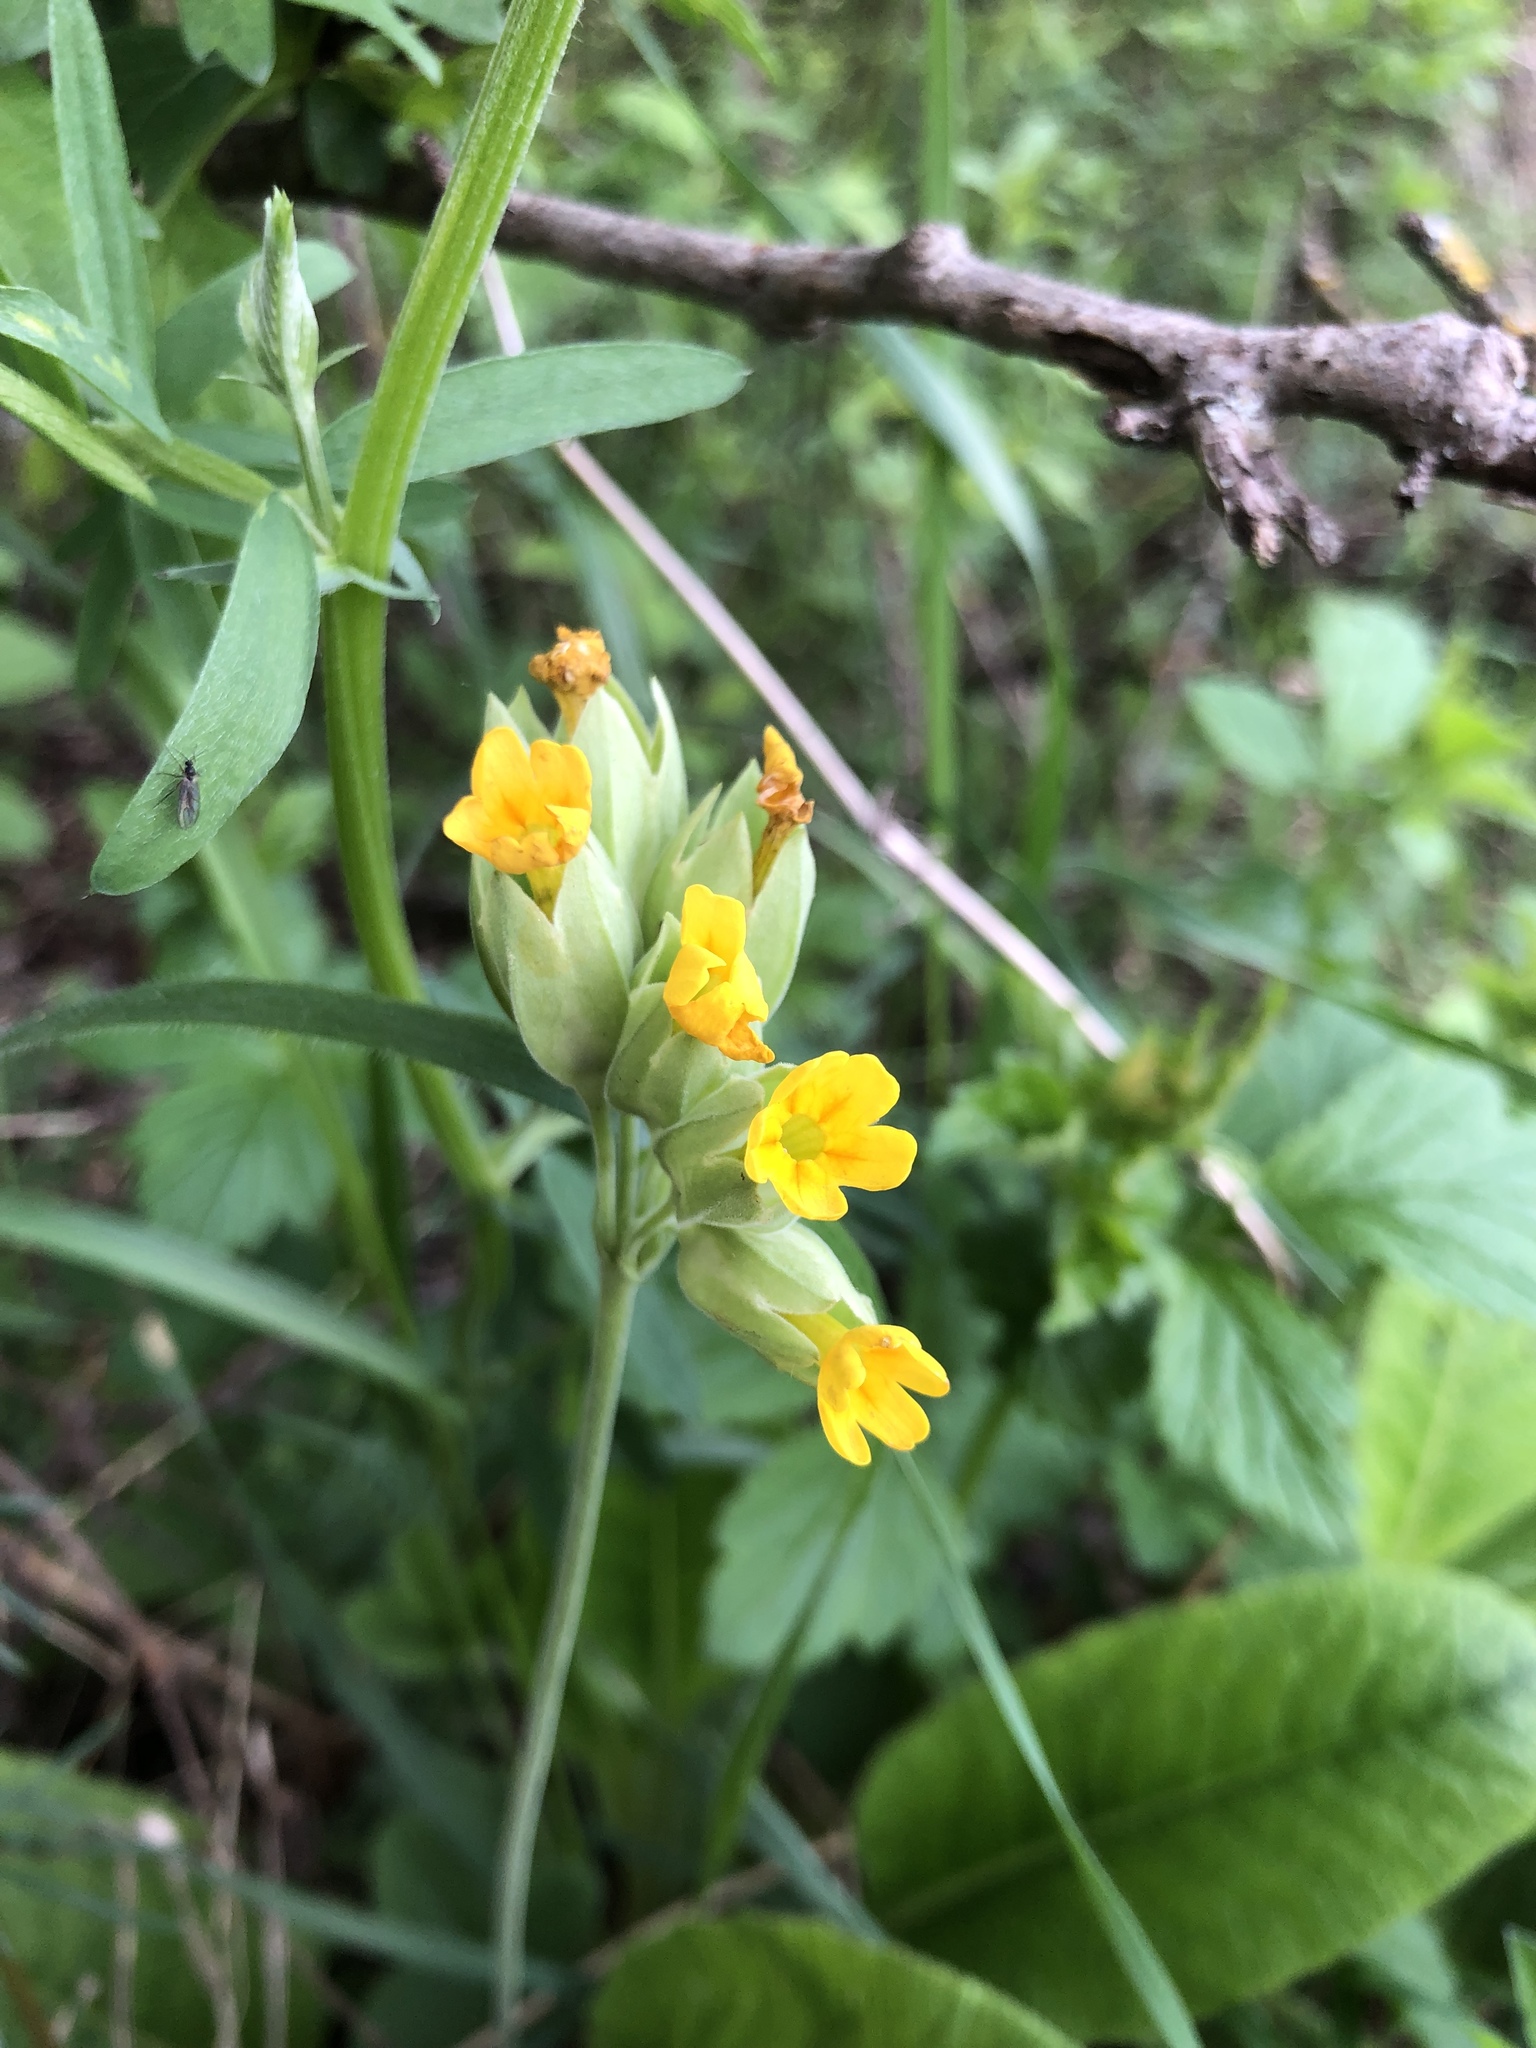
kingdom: Plantae
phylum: Tracheophyta
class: Magnoliopsida
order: Ericales
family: Primulaceae
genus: Primula
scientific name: Primula veris
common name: Cowslip
